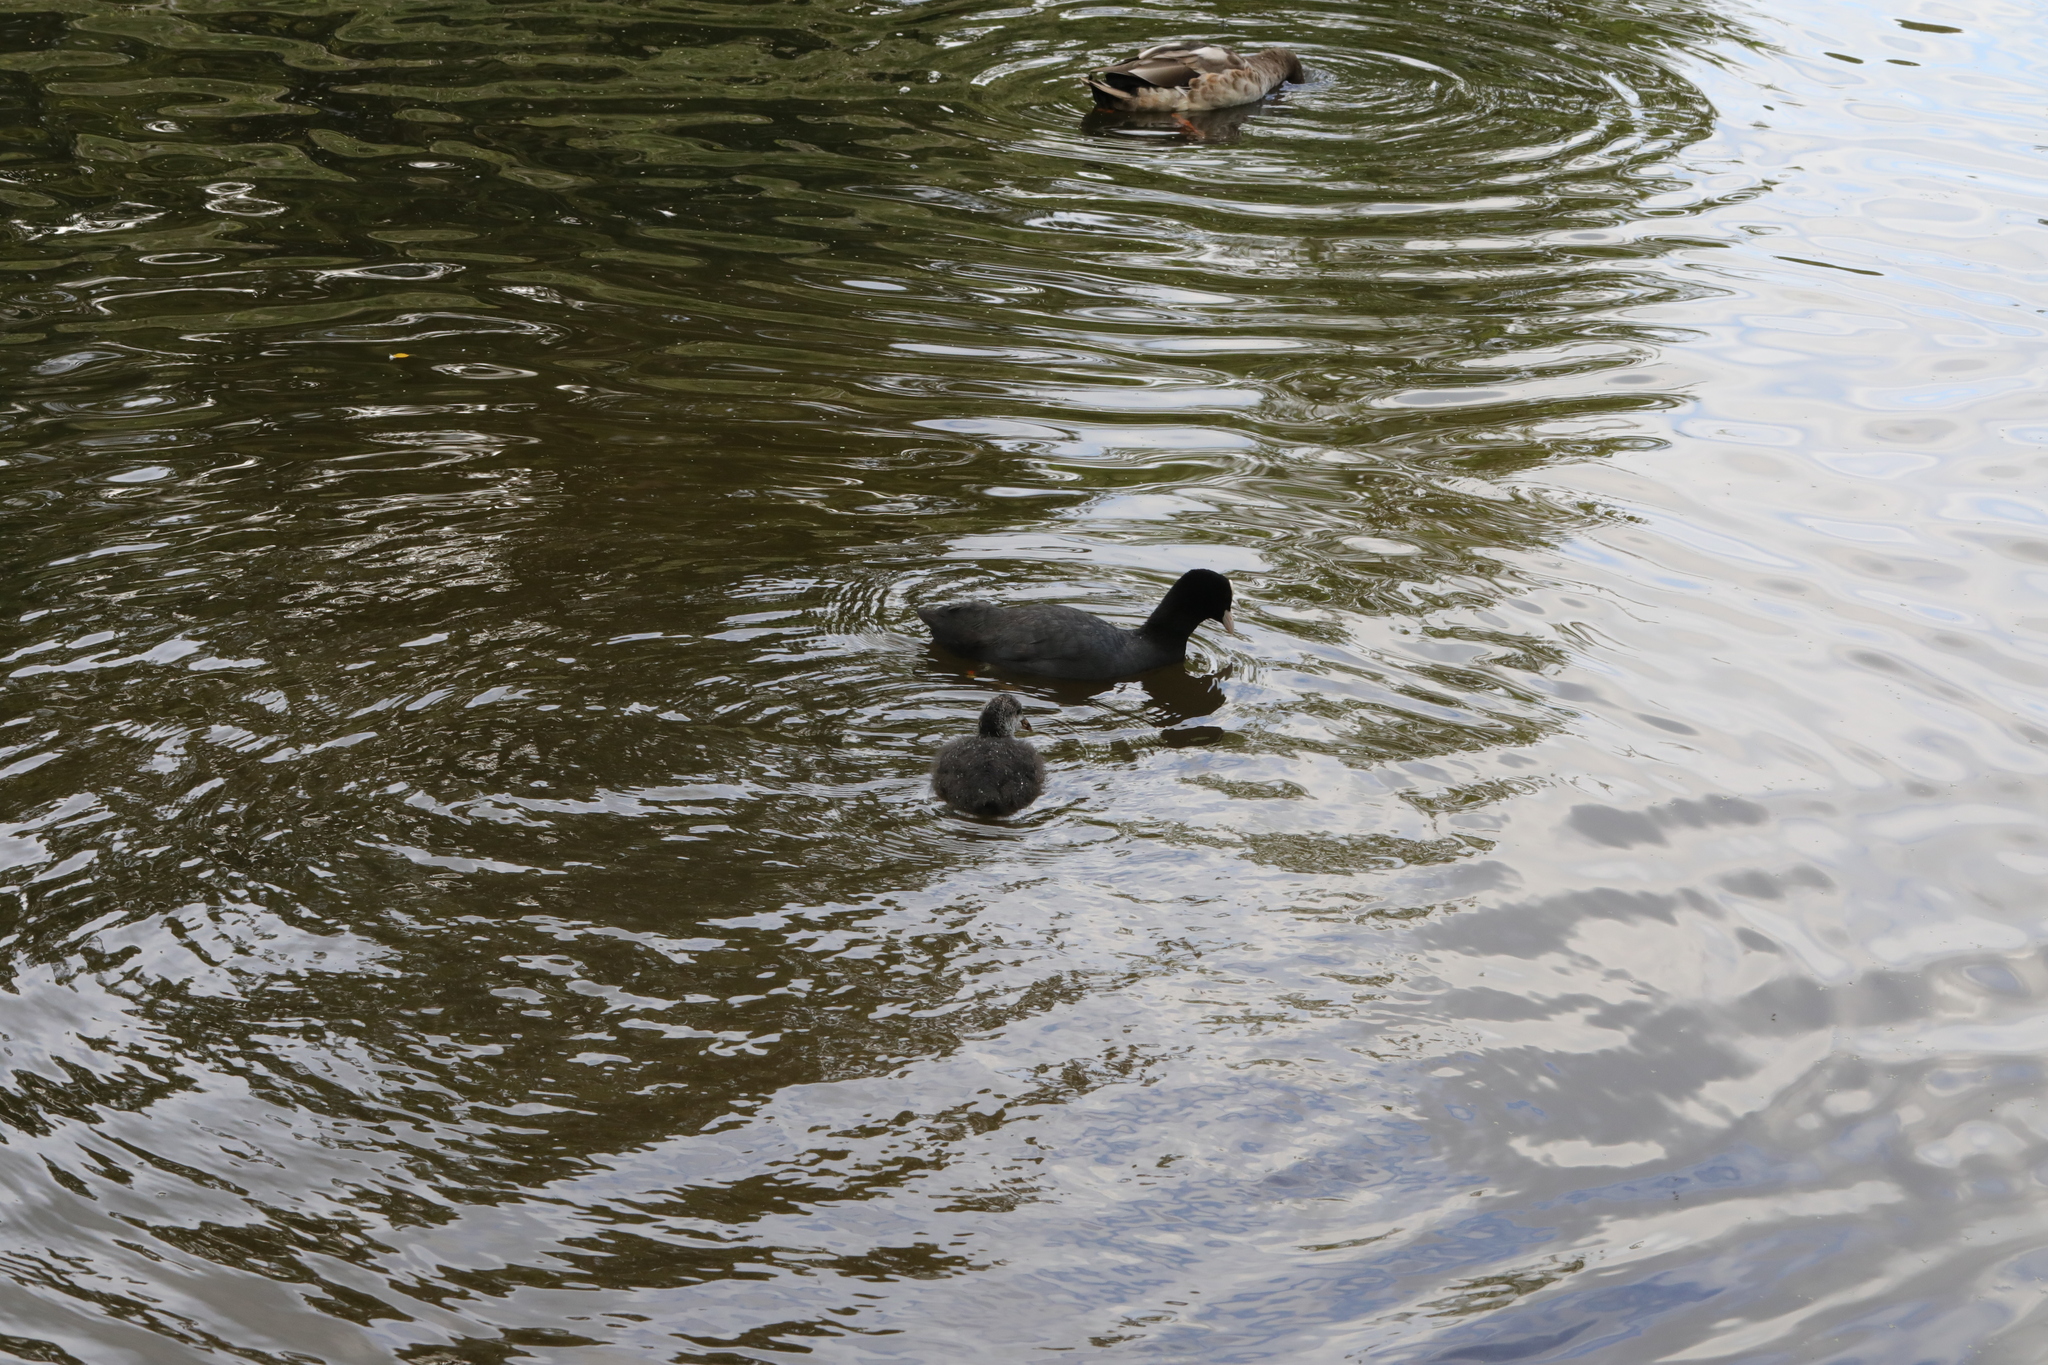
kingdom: Animalia
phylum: Chordata
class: Aves
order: Gruiformes
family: Rallidae
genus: Fulica
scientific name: Fulica atra
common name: Eurasian coot
